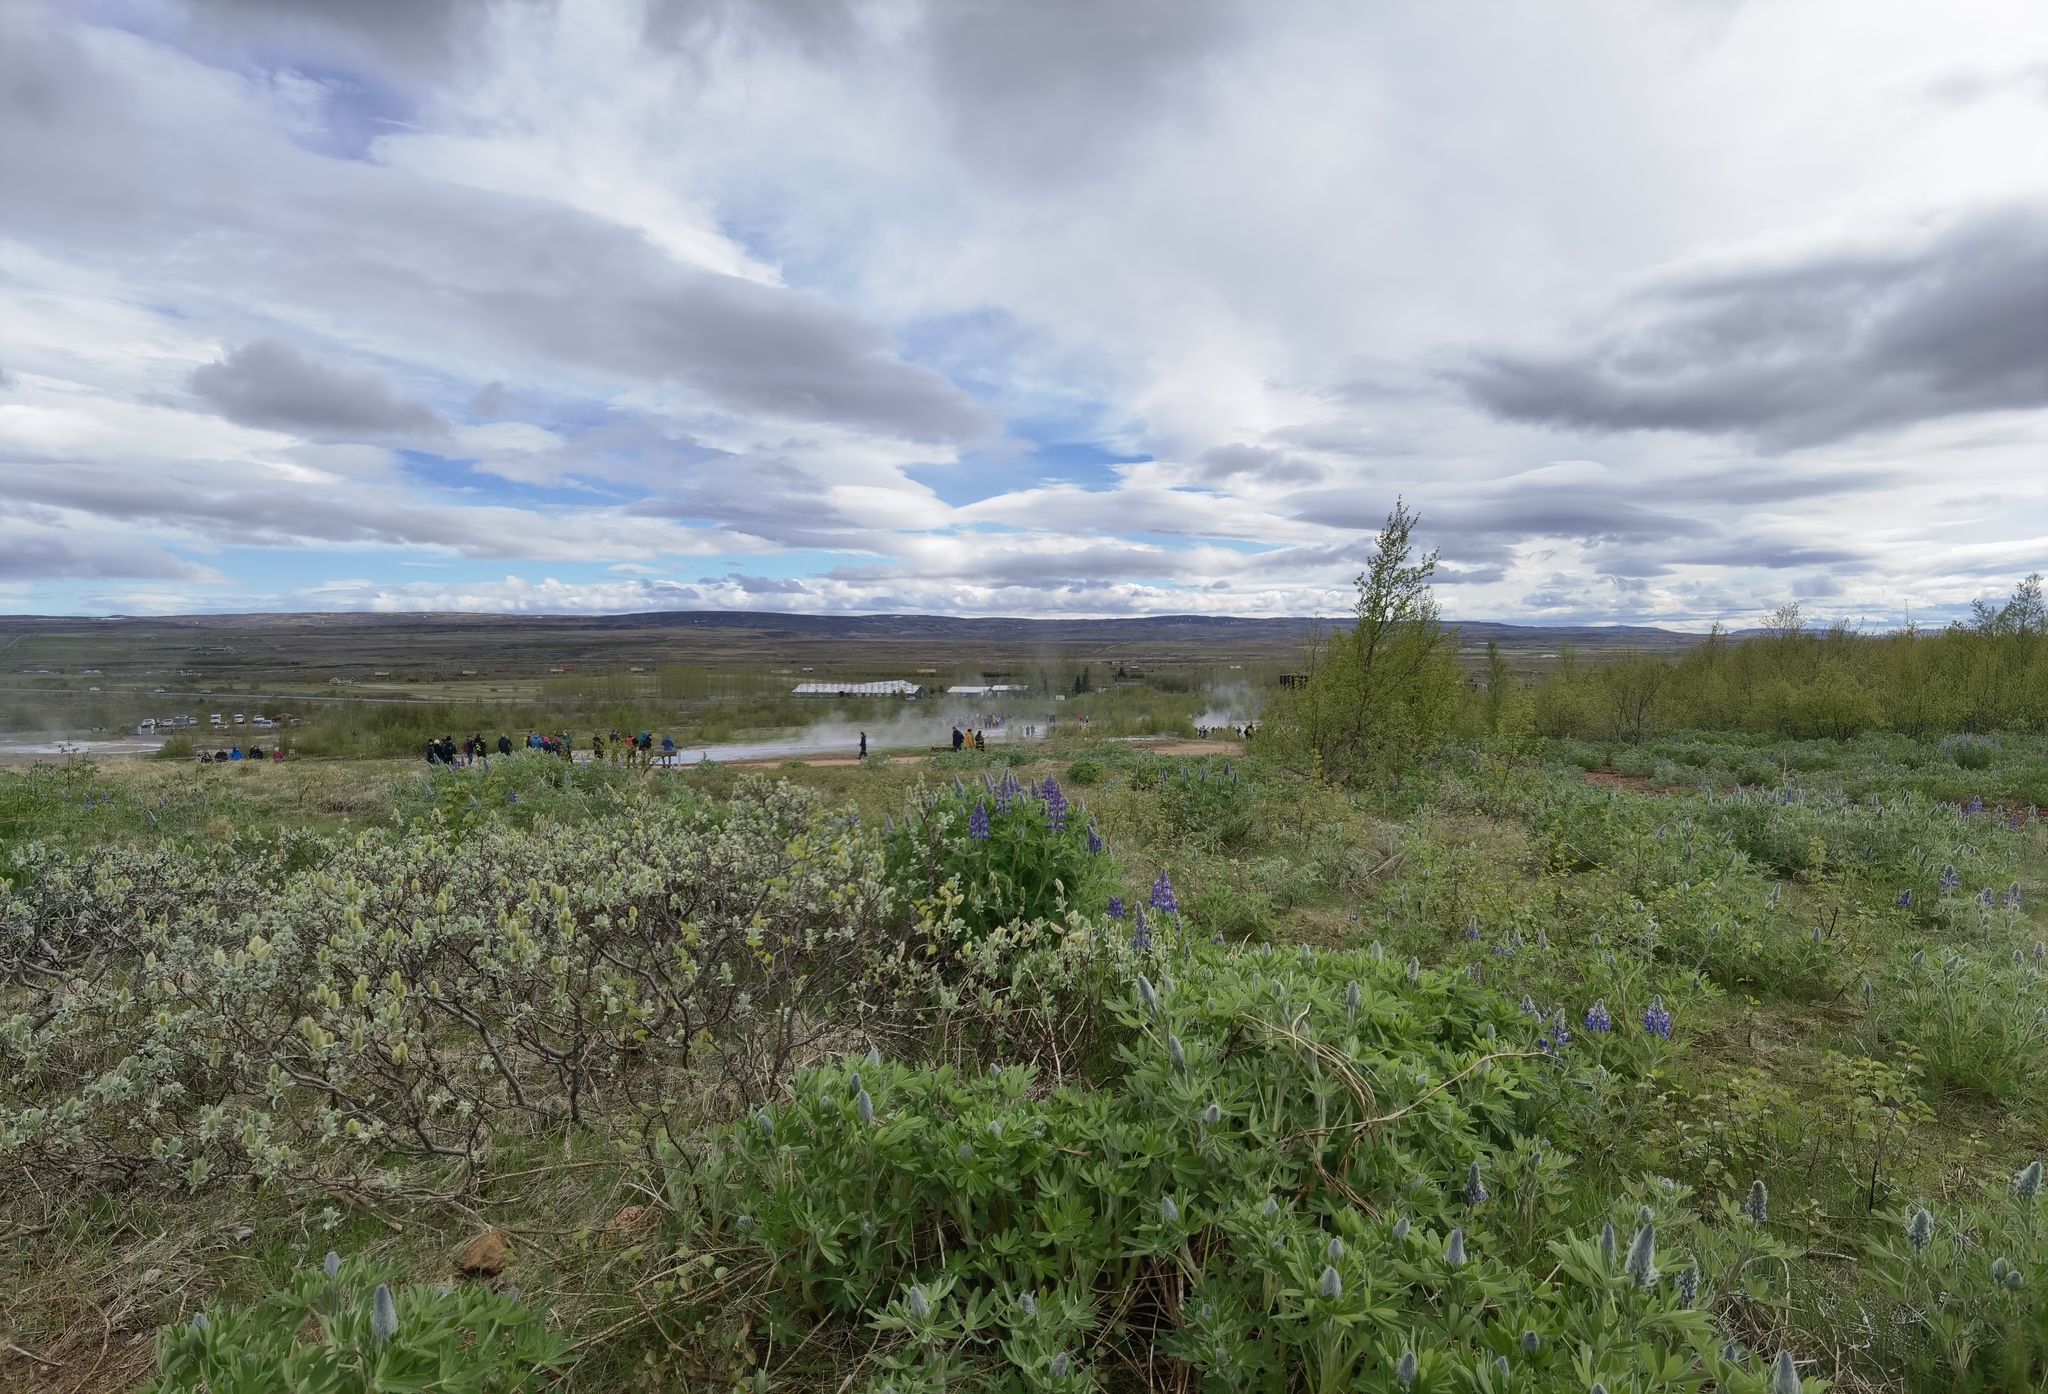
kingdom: Plantae
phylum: Tracheophyta
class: Magnoliopsida
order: Fabales
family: Fabaceae
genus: Lupinus
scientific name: Lupinus nootkatensis
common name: Nootka lupine
